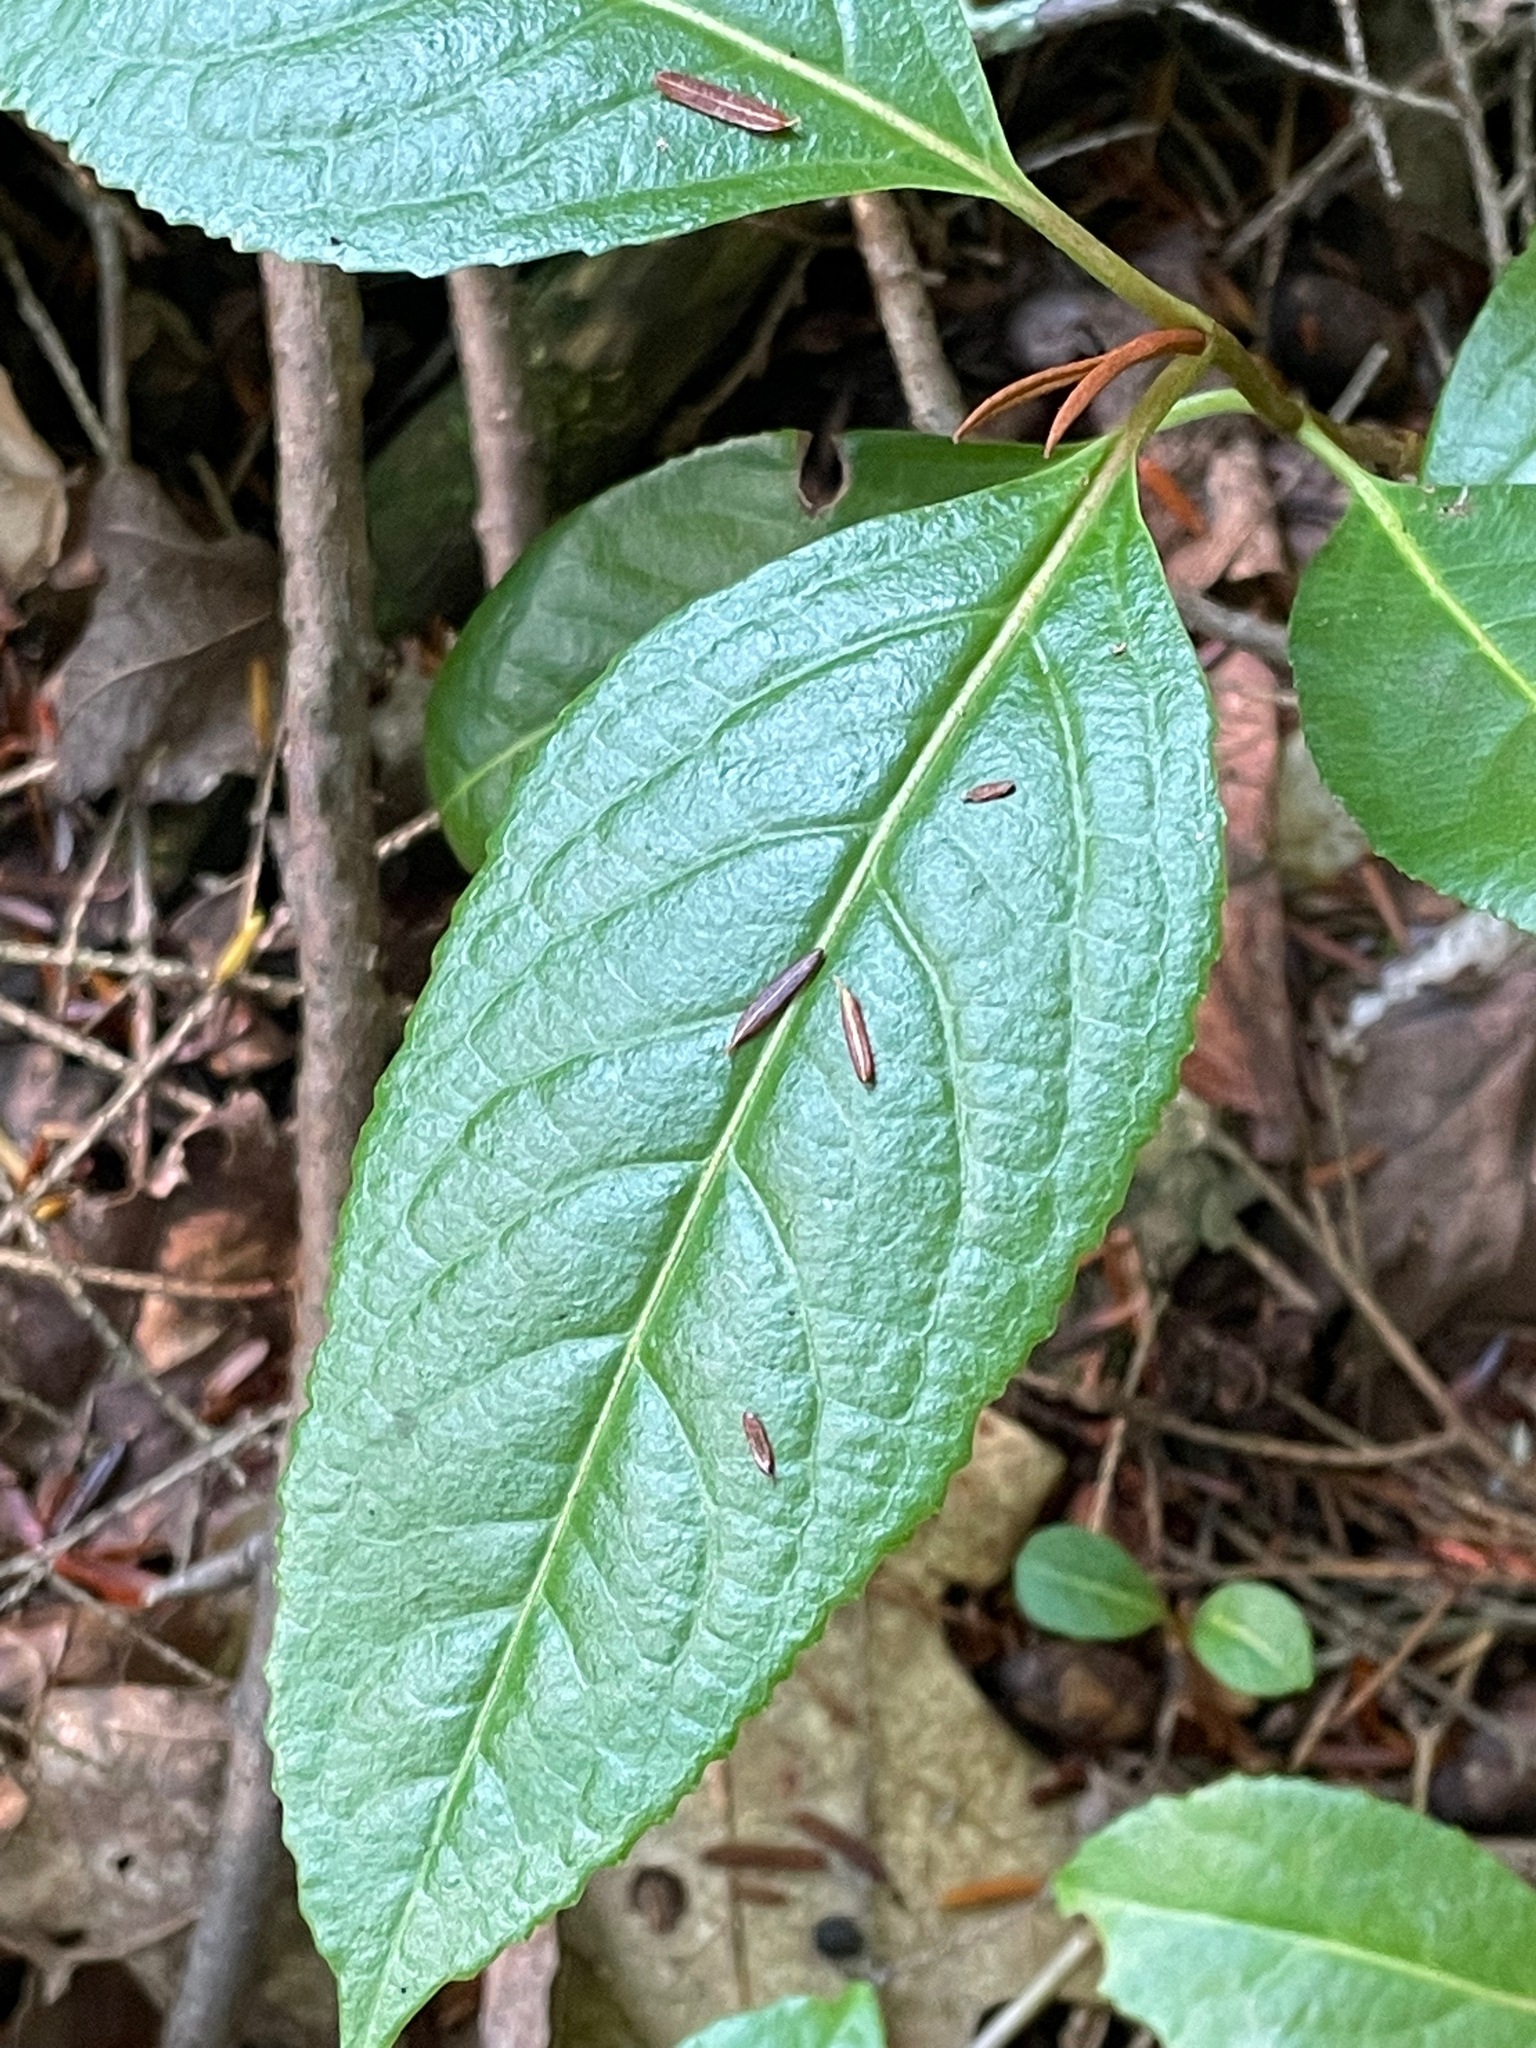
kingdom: Plantae
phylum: Tracheophyta
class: Magnoliopsida
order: Dipsacales
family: Viburnaceae
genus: Viburnum
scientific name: Viburnum cassinoides
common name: Swamp haw
